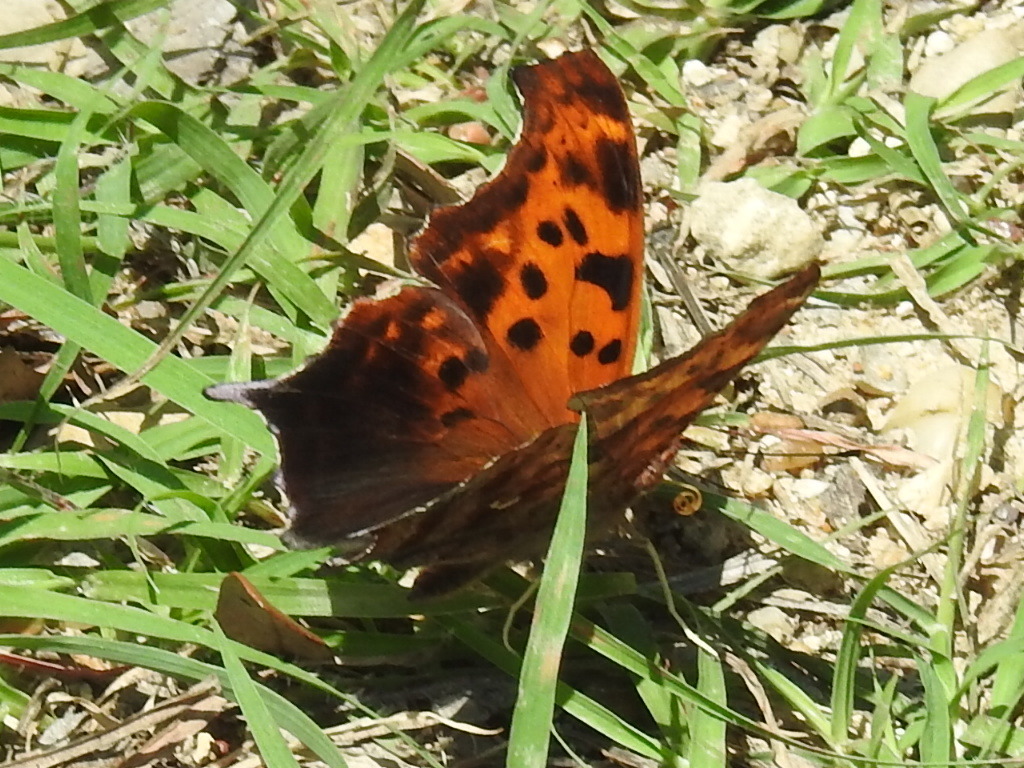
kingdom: Animalia
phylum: Arthropoda
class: Insecta
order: Lepidoptera
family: Nymphalidae
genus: Polygonia
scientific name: Polygonia interrogationis
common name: Question mark
